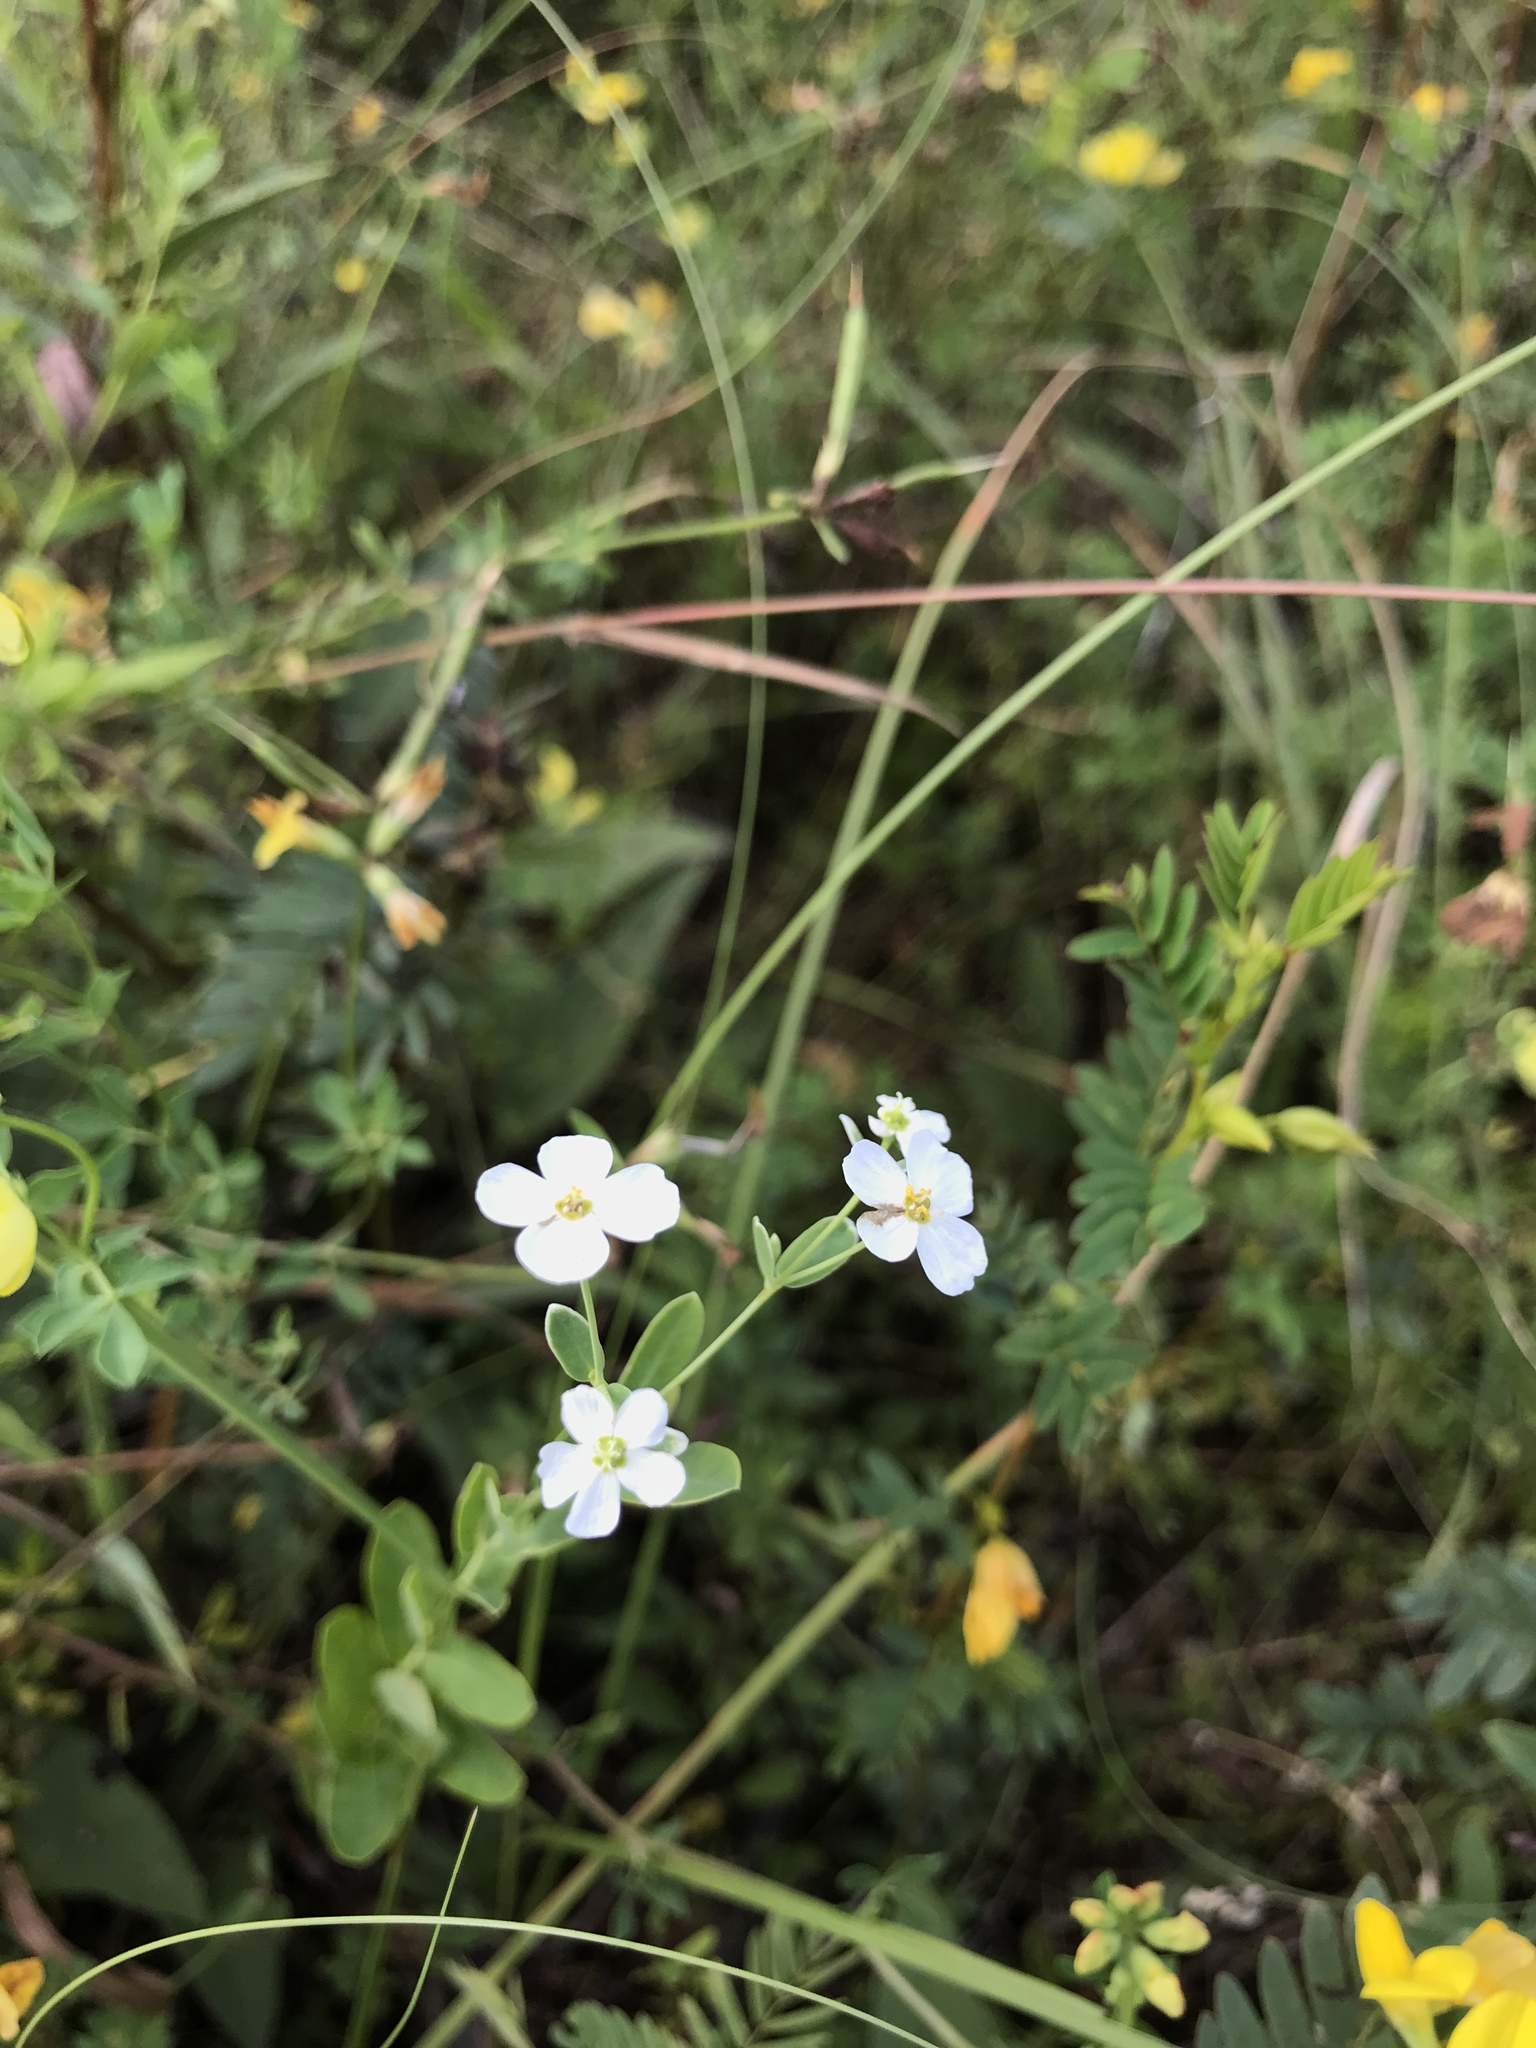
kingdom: Plantae
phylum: Tracheophyta
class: Magnoliopsida
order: Malpighiales
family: Euphorbiaceae
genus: Euphorbia
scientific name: Euphorbia corollata
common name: Flowering spurge
